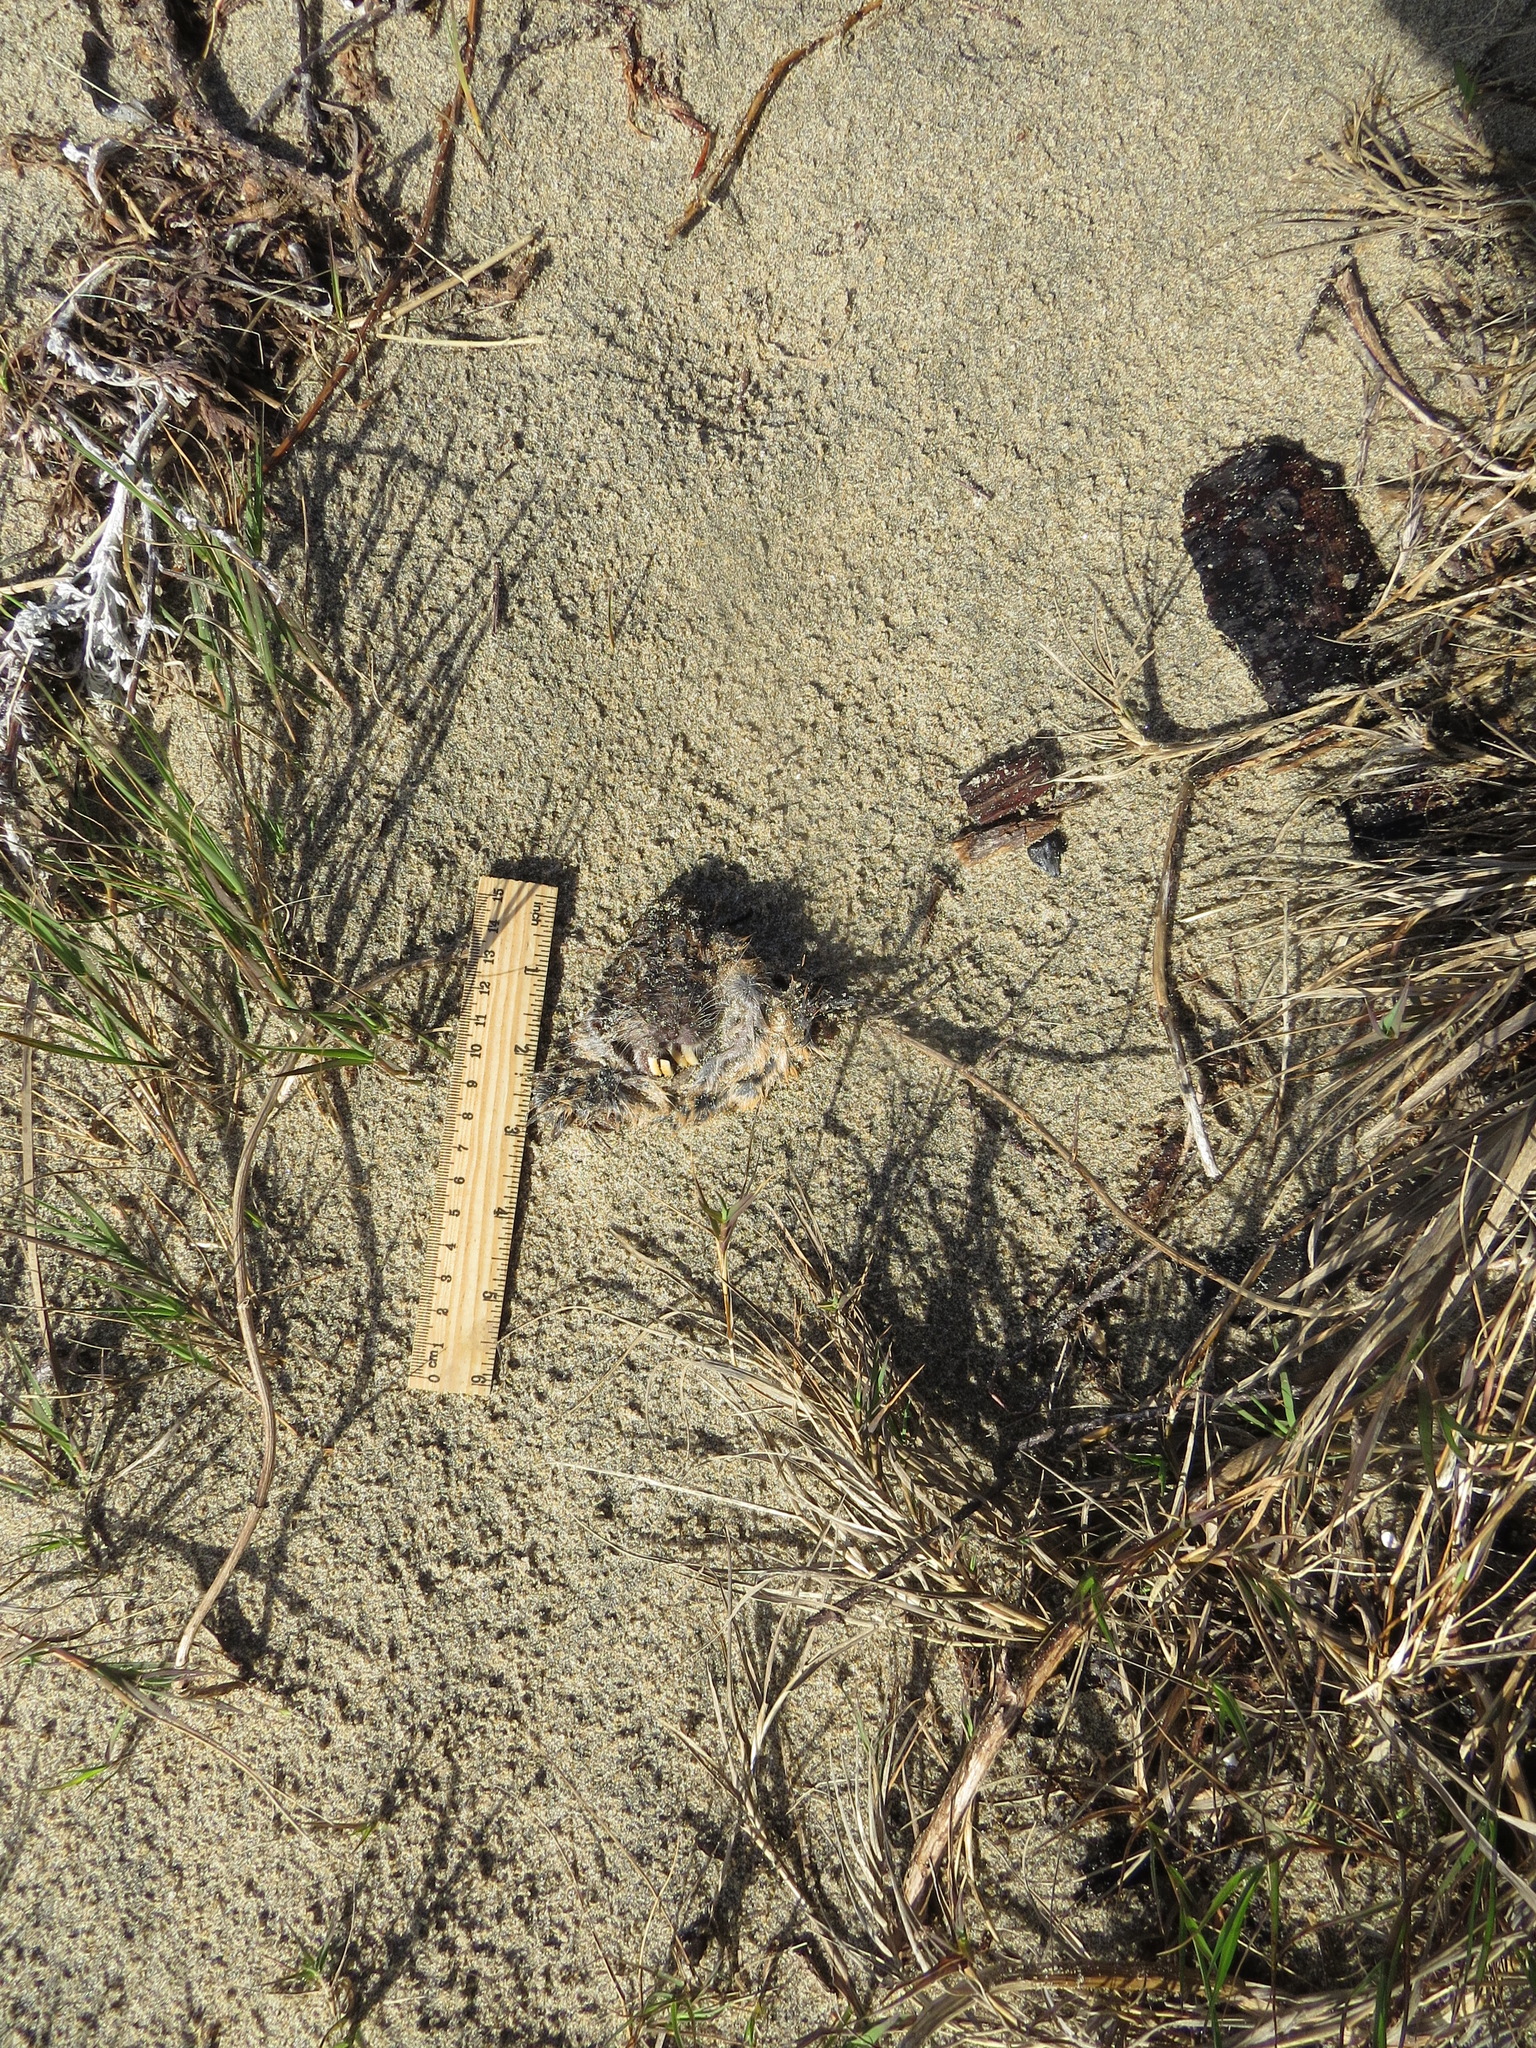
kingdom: Animalia
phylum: Chordata
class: Mammalia
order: Rodentia
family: Geomyidae
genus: Thomomys
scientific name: Thomomys bottae
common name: Botta's pocket gopher
